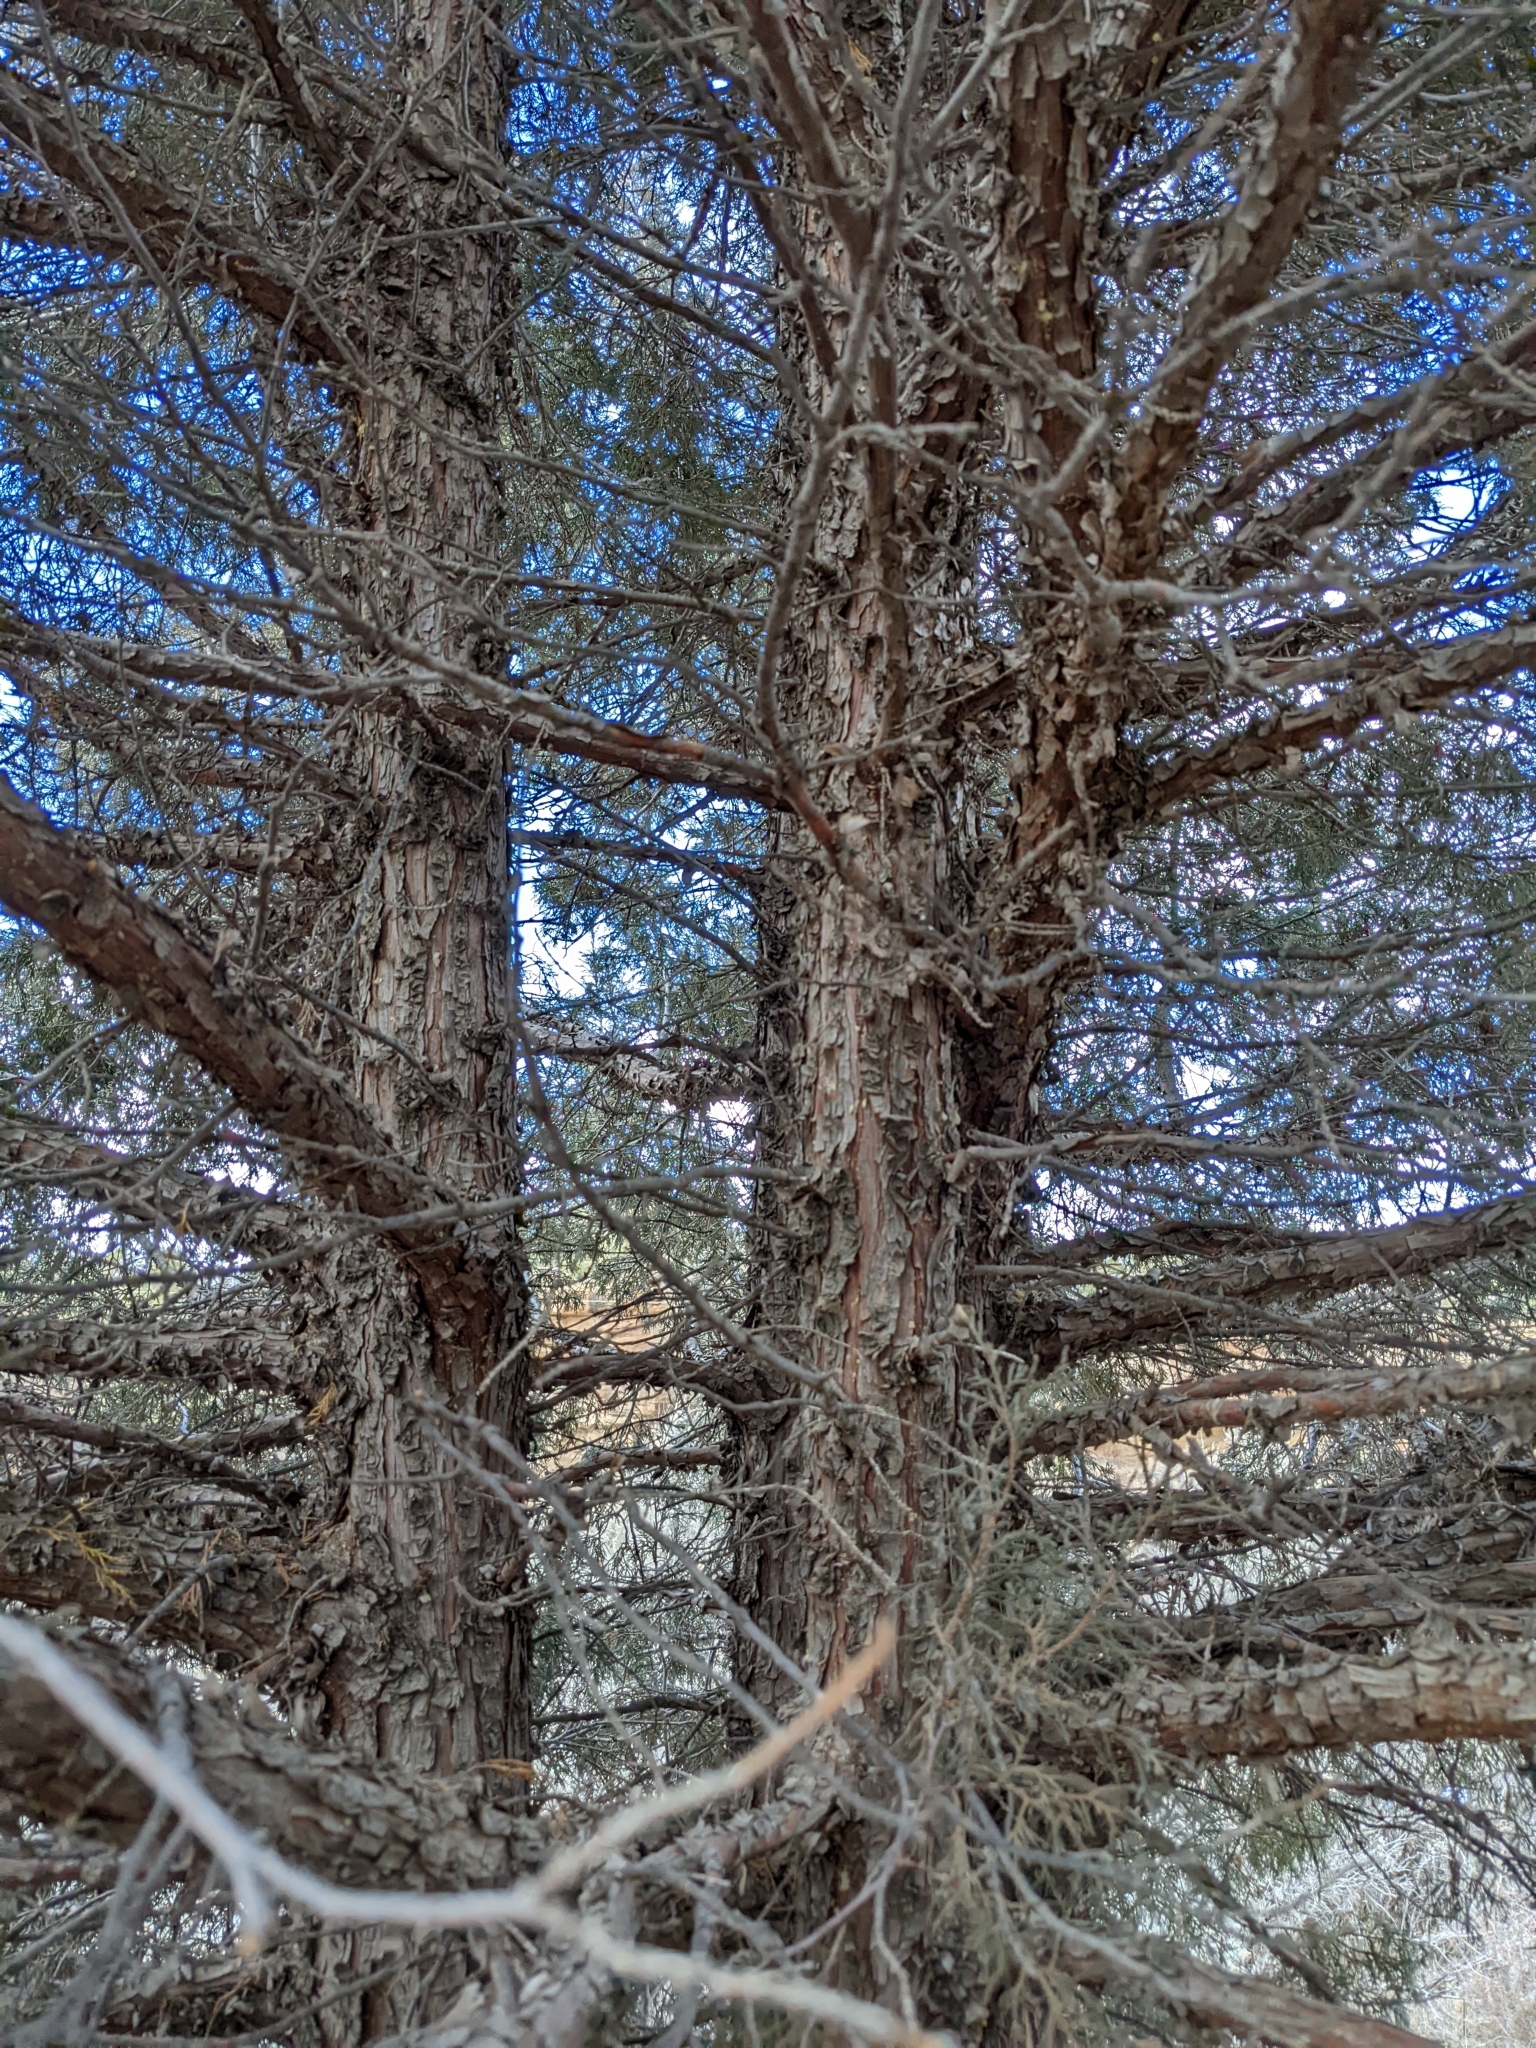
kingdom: Plantae
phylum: Tracheophyta
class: Pinopsida
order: Pinales
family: Cupressaceae
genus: Juniperus
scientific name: Juniperus scopulorum
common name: Rocky mountain juniper
